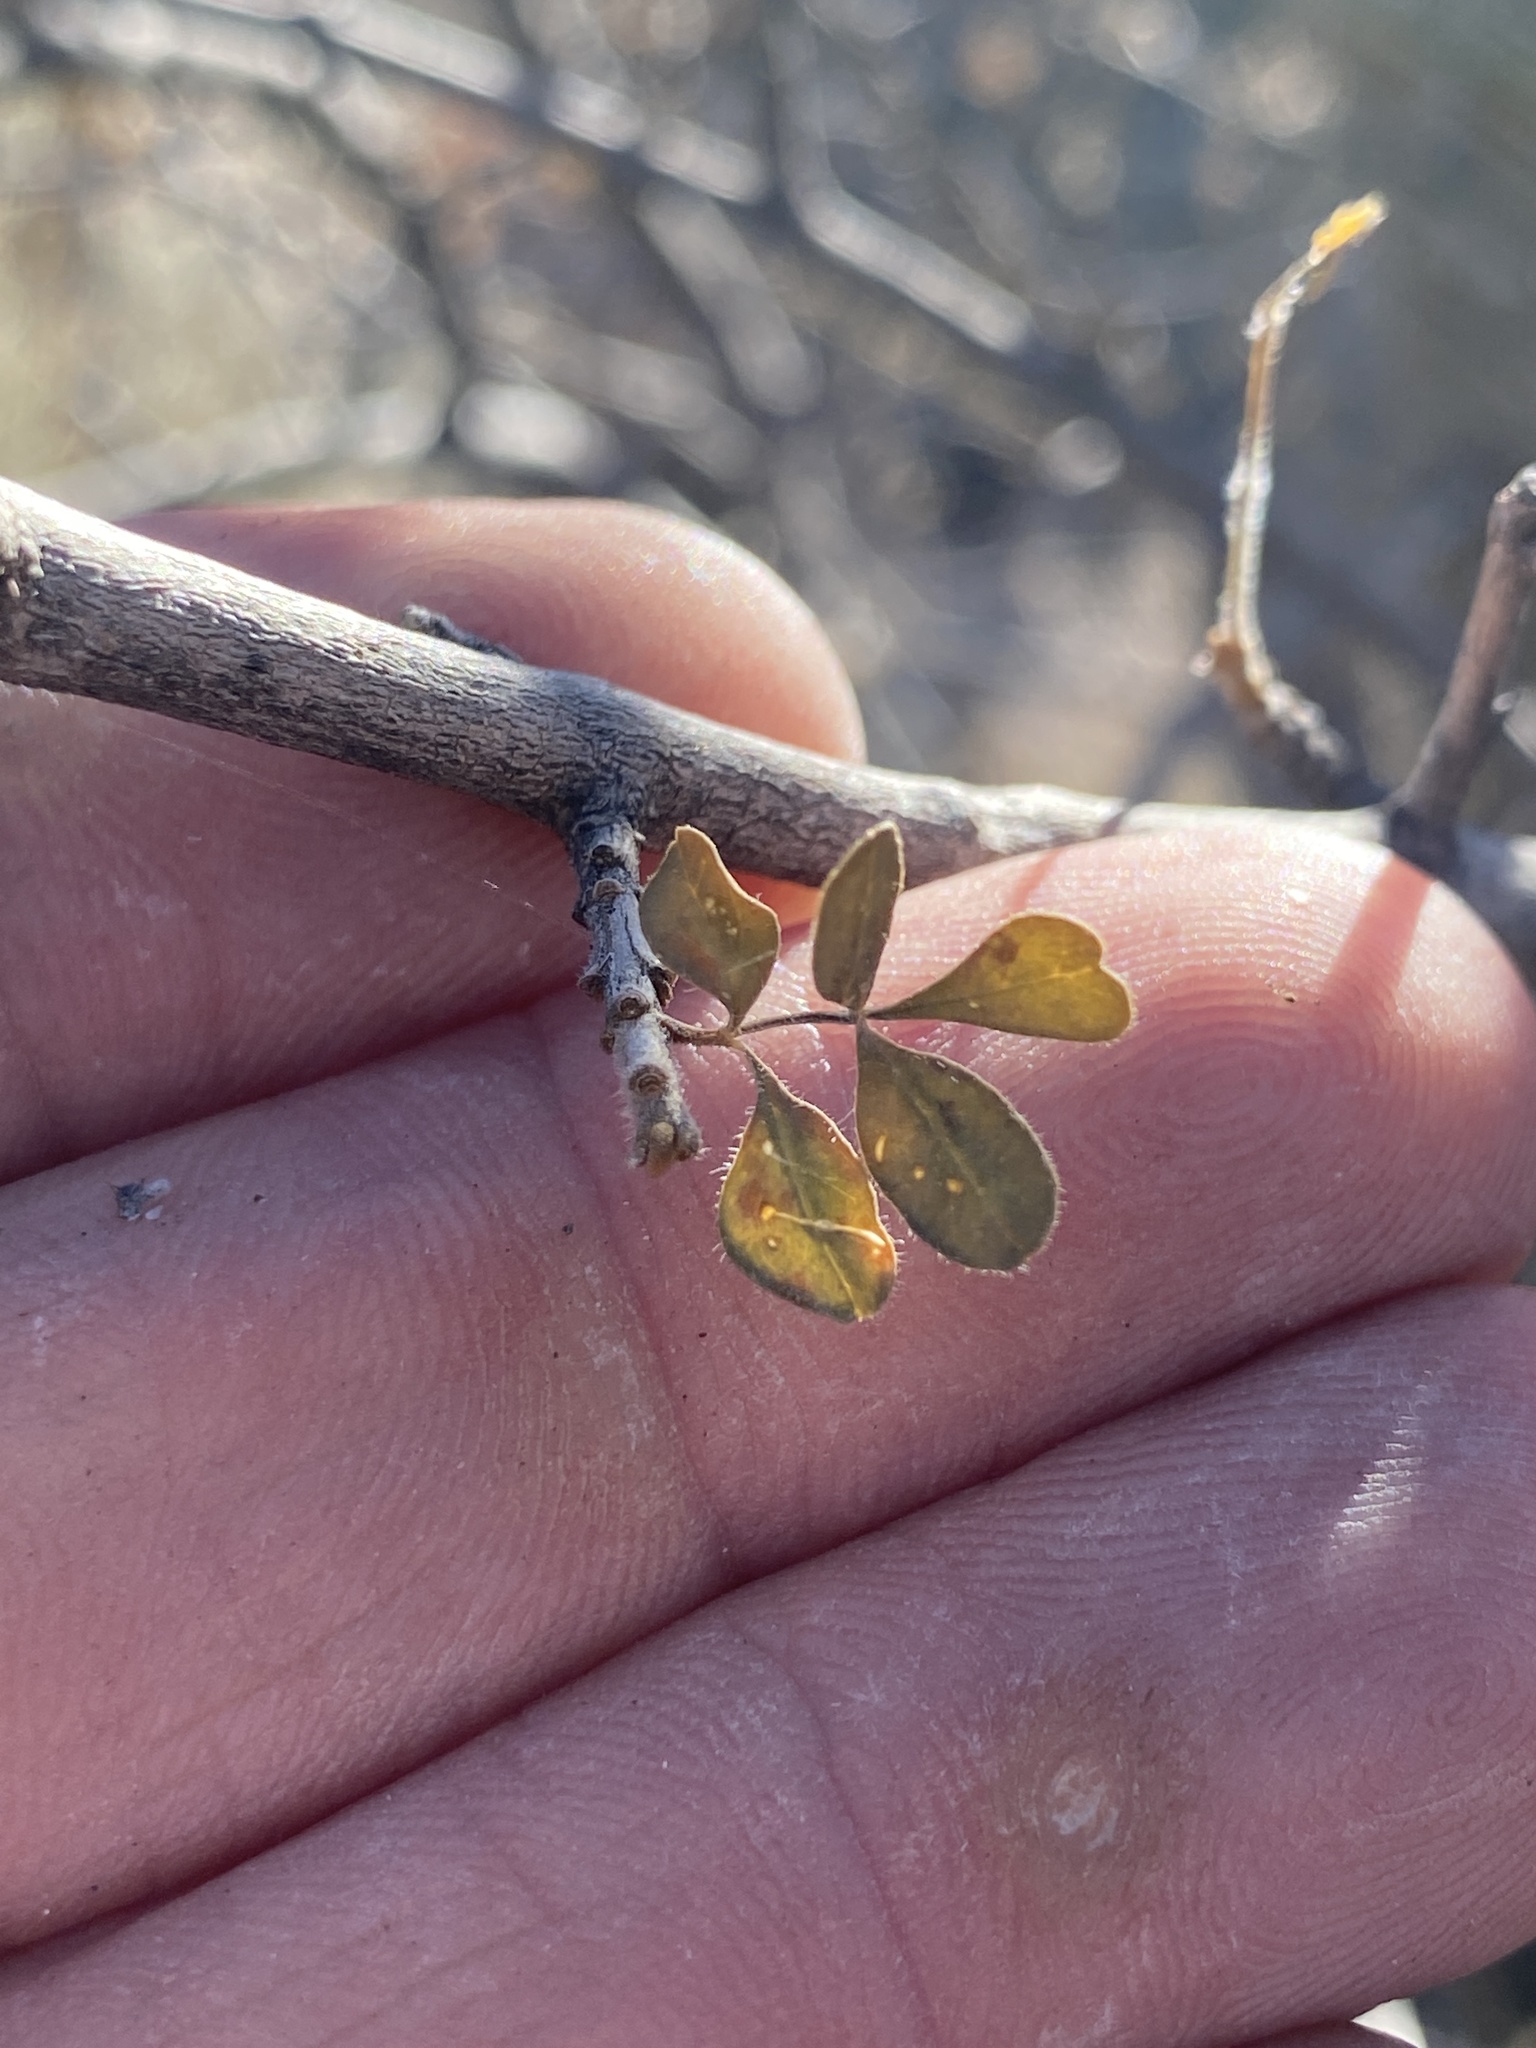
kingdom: Plantae
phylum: Tracheophyta
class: Magnoliopsida
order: Sapindales
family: Anacardiaceae
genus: Rhus
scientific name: Rhus microphylla
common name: Desert sumac
